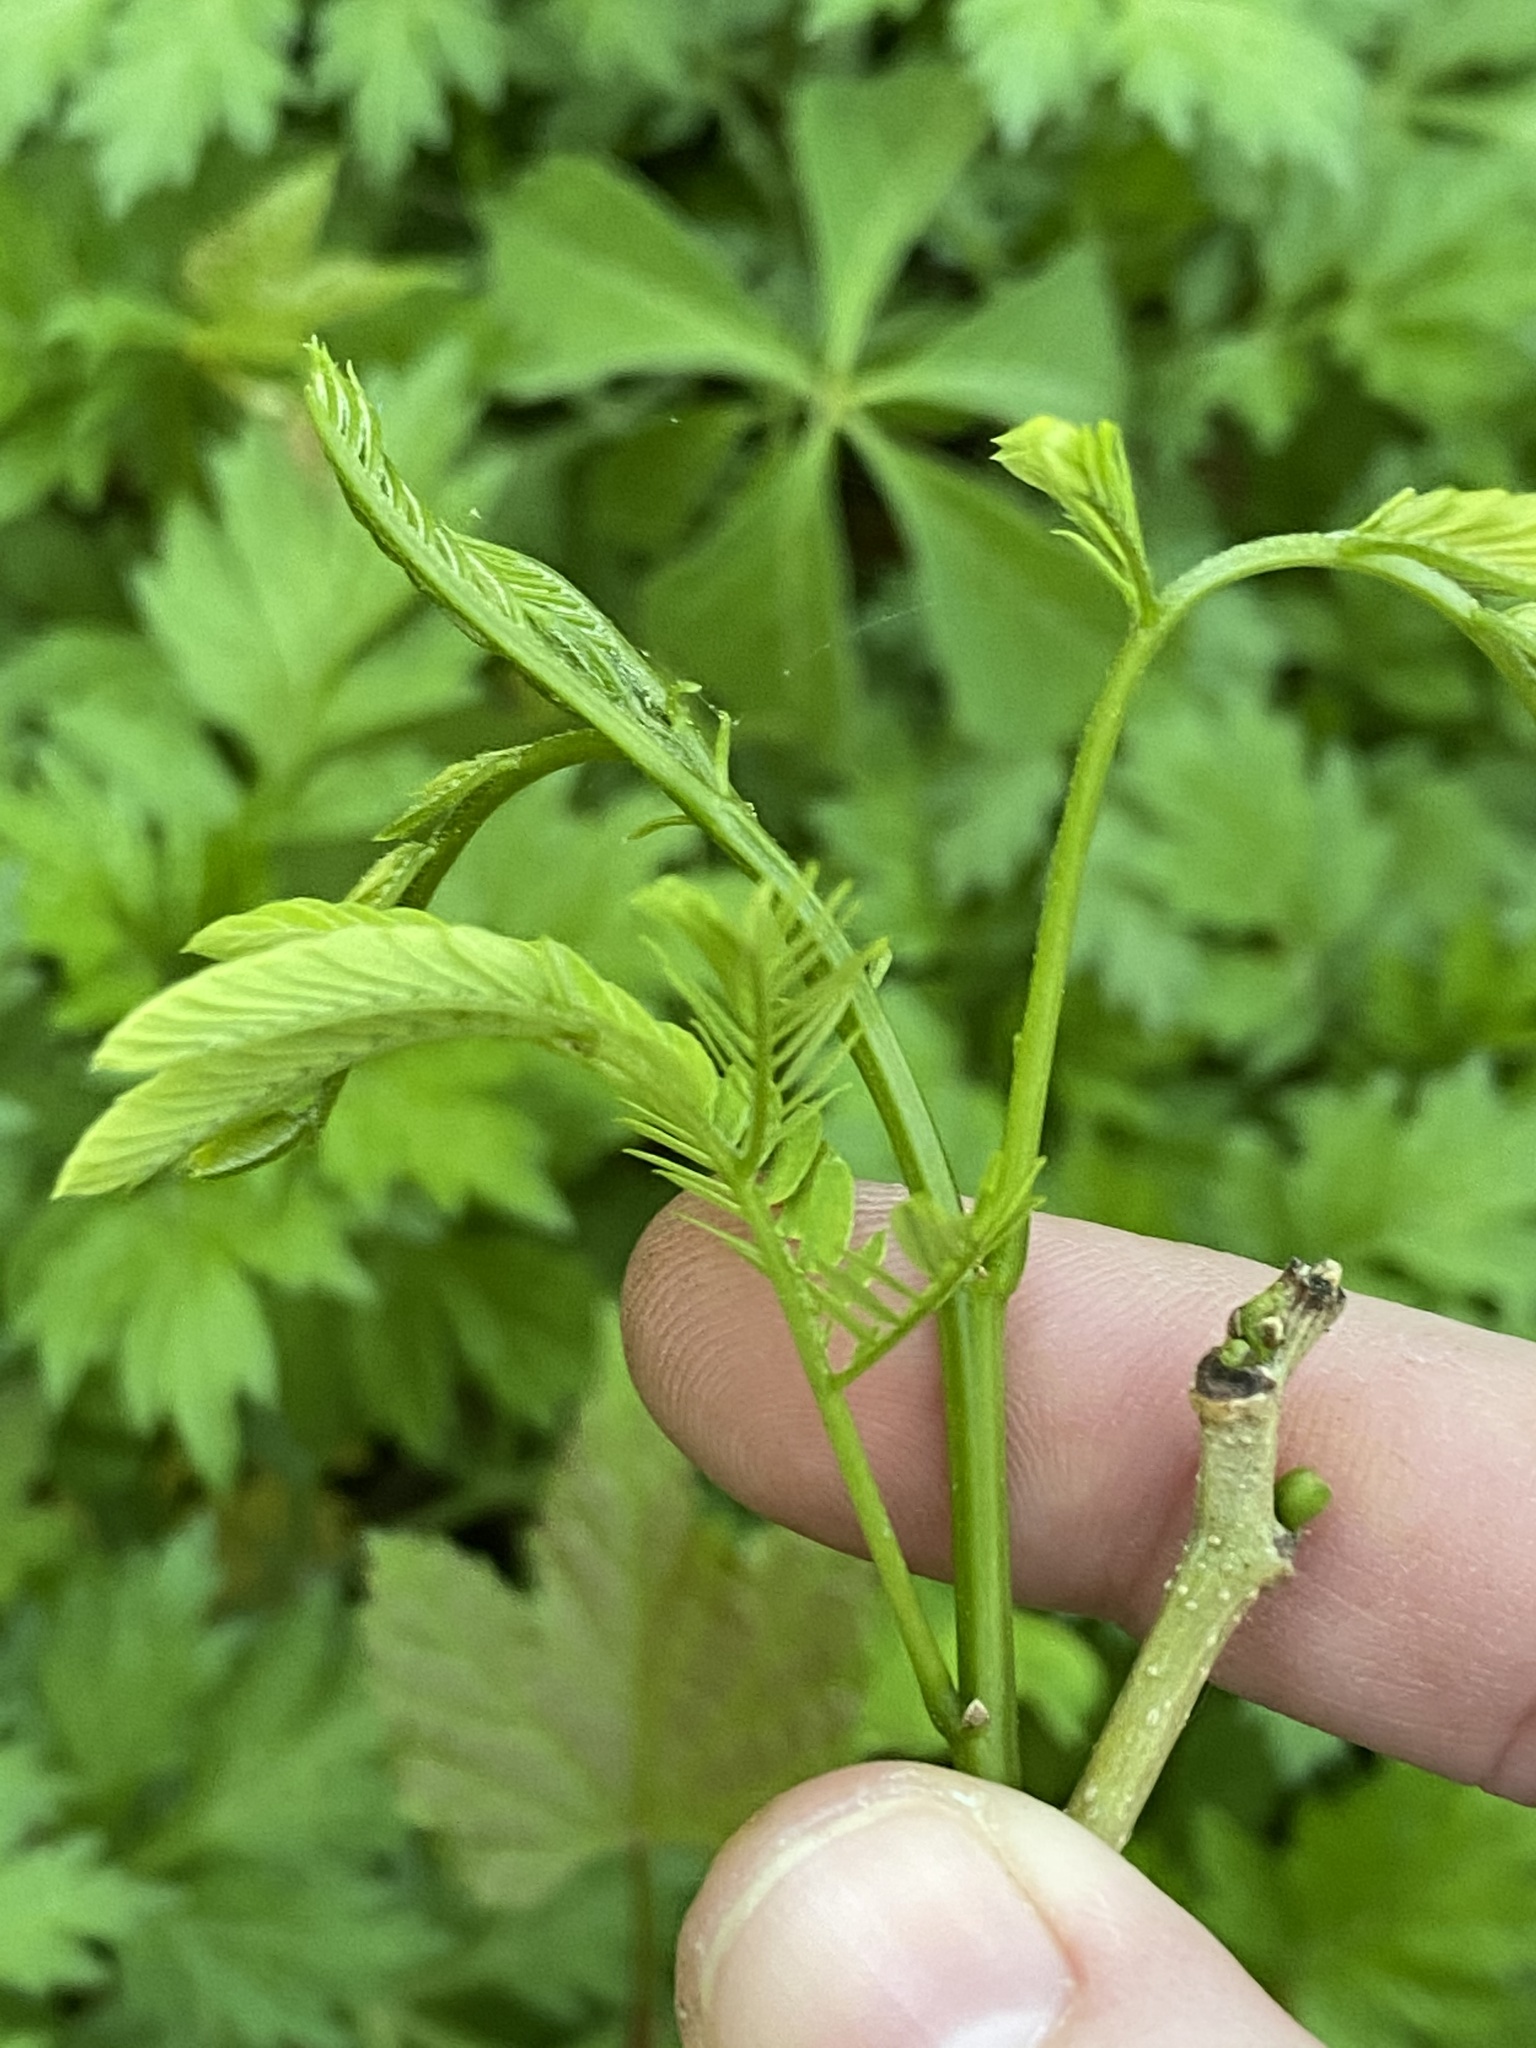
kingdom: Plantae
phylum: Tracheophyta
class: Magnoliopsida
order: Fabales
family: Fabaceae
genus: Albizia
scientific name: Albizia julibrissin
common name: Silktree
